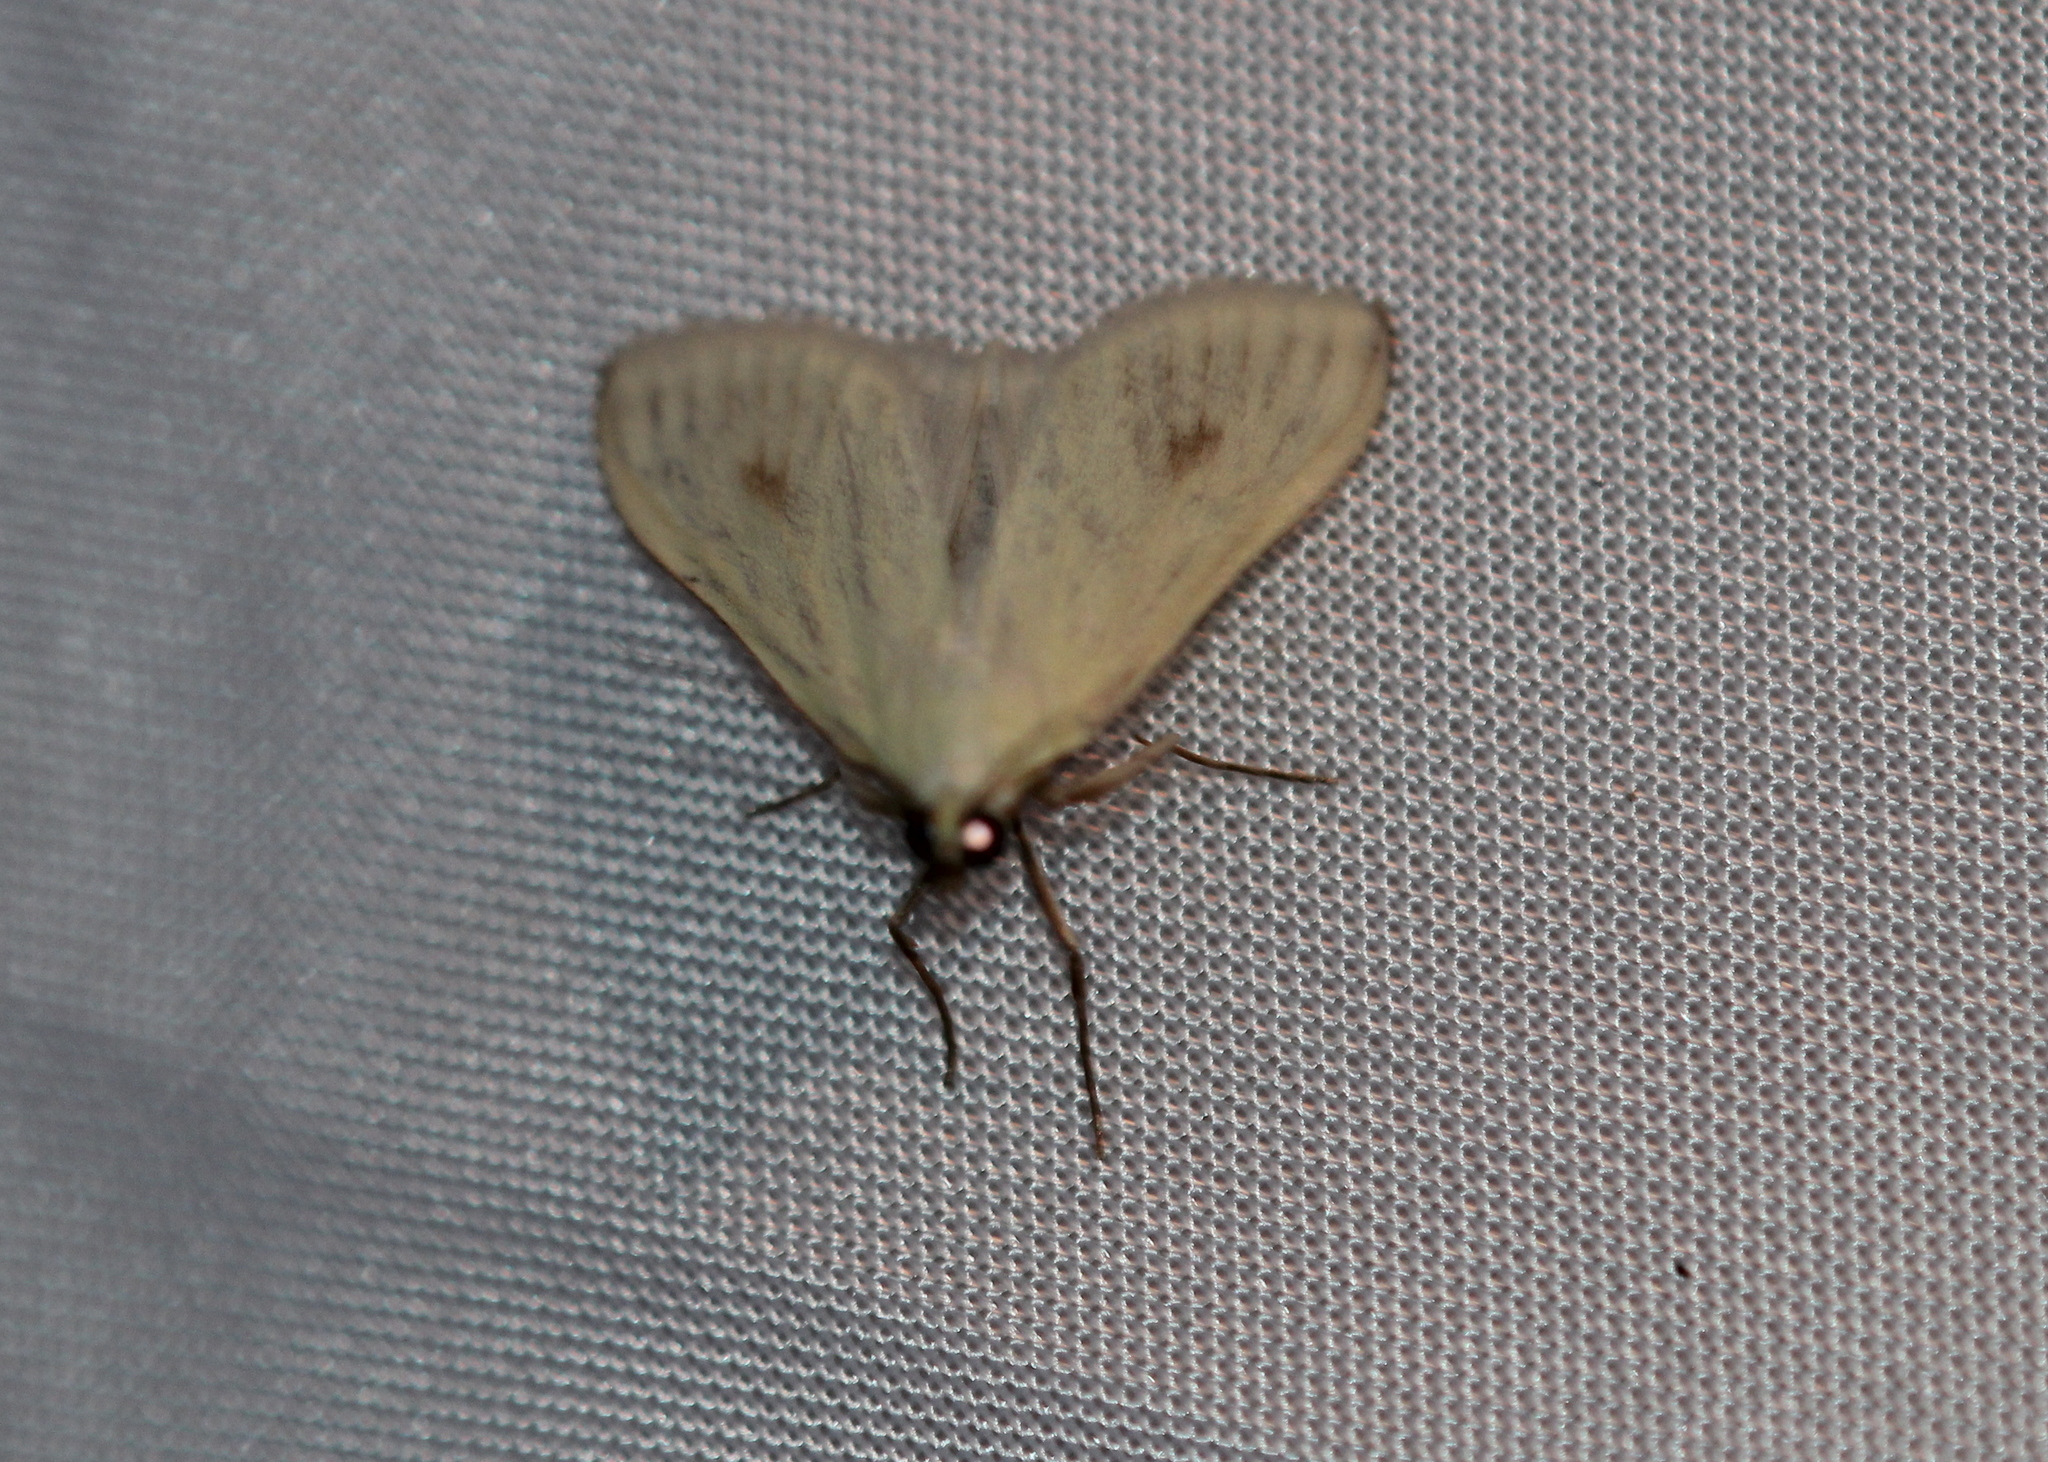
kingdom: Animalia
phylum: Arthropoda
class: Insecta
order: Lepidoptera
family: Crambidae
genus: Sitochroa
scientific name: Sitochroa palealis
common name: Greenish-yellow sitochroa moth
